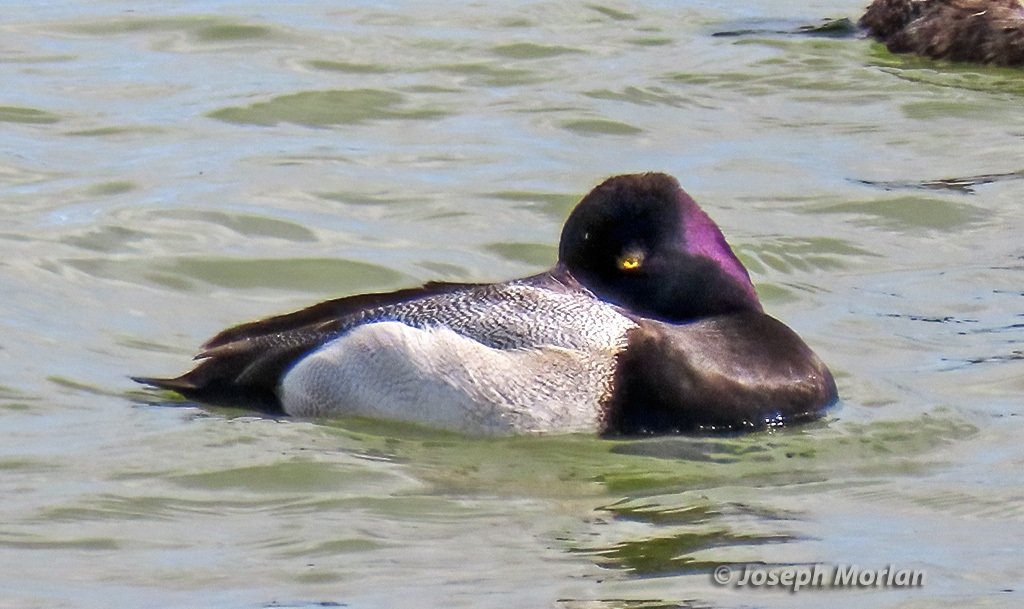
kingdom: Animalia
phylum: Chordata
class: Aves
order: Anseriformes
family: Anatidae
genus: Aythya
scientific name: Aythya affinis
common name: Lesser scaup
